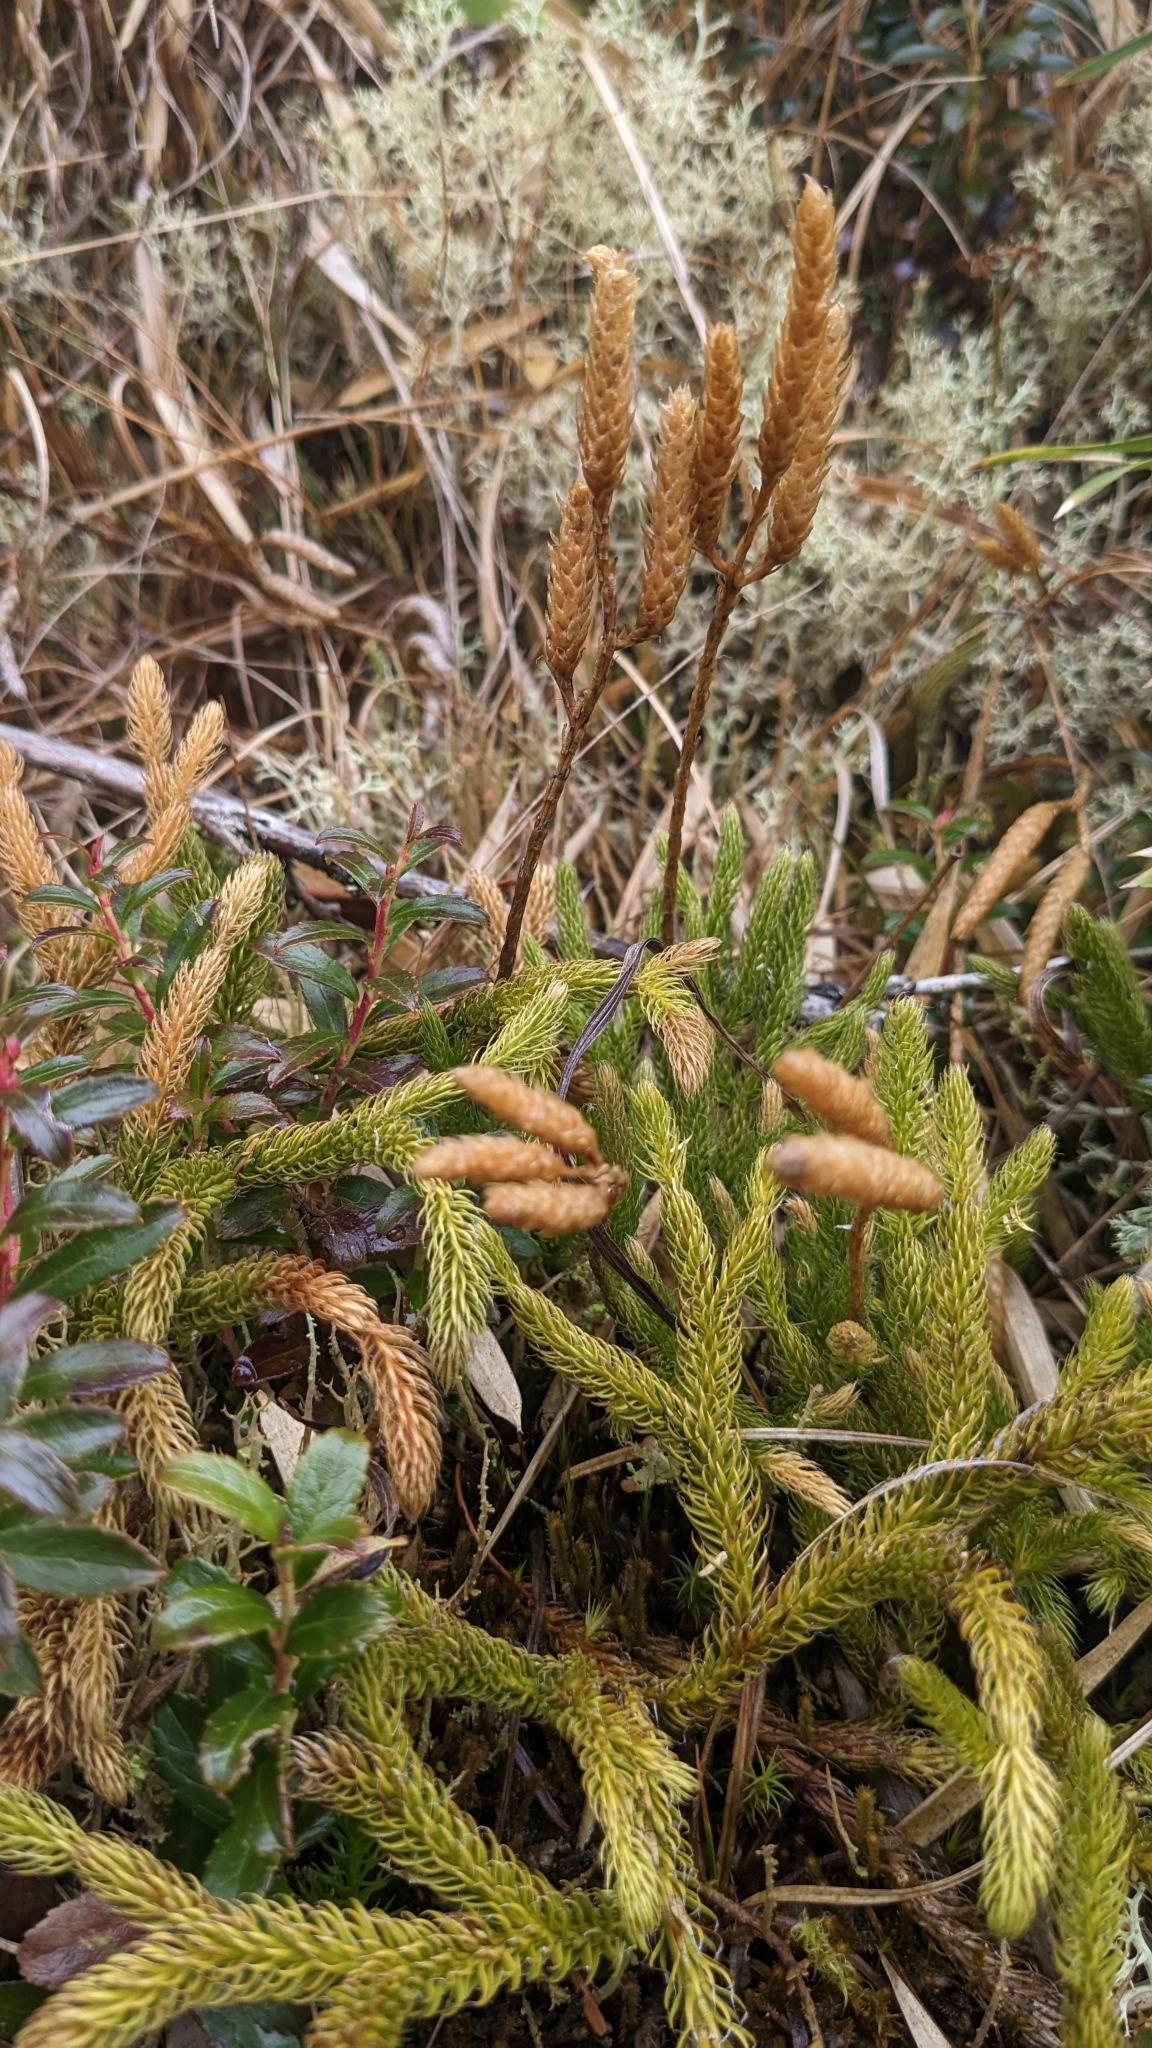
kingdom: Plantae
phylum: Tracheophyta
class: Lycopodiopsida
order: Lycopodiales
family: Lycopodiaceae
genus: Lycopodium
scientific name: Lycopodium clavatum
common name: Stag's-horn clubmoss
